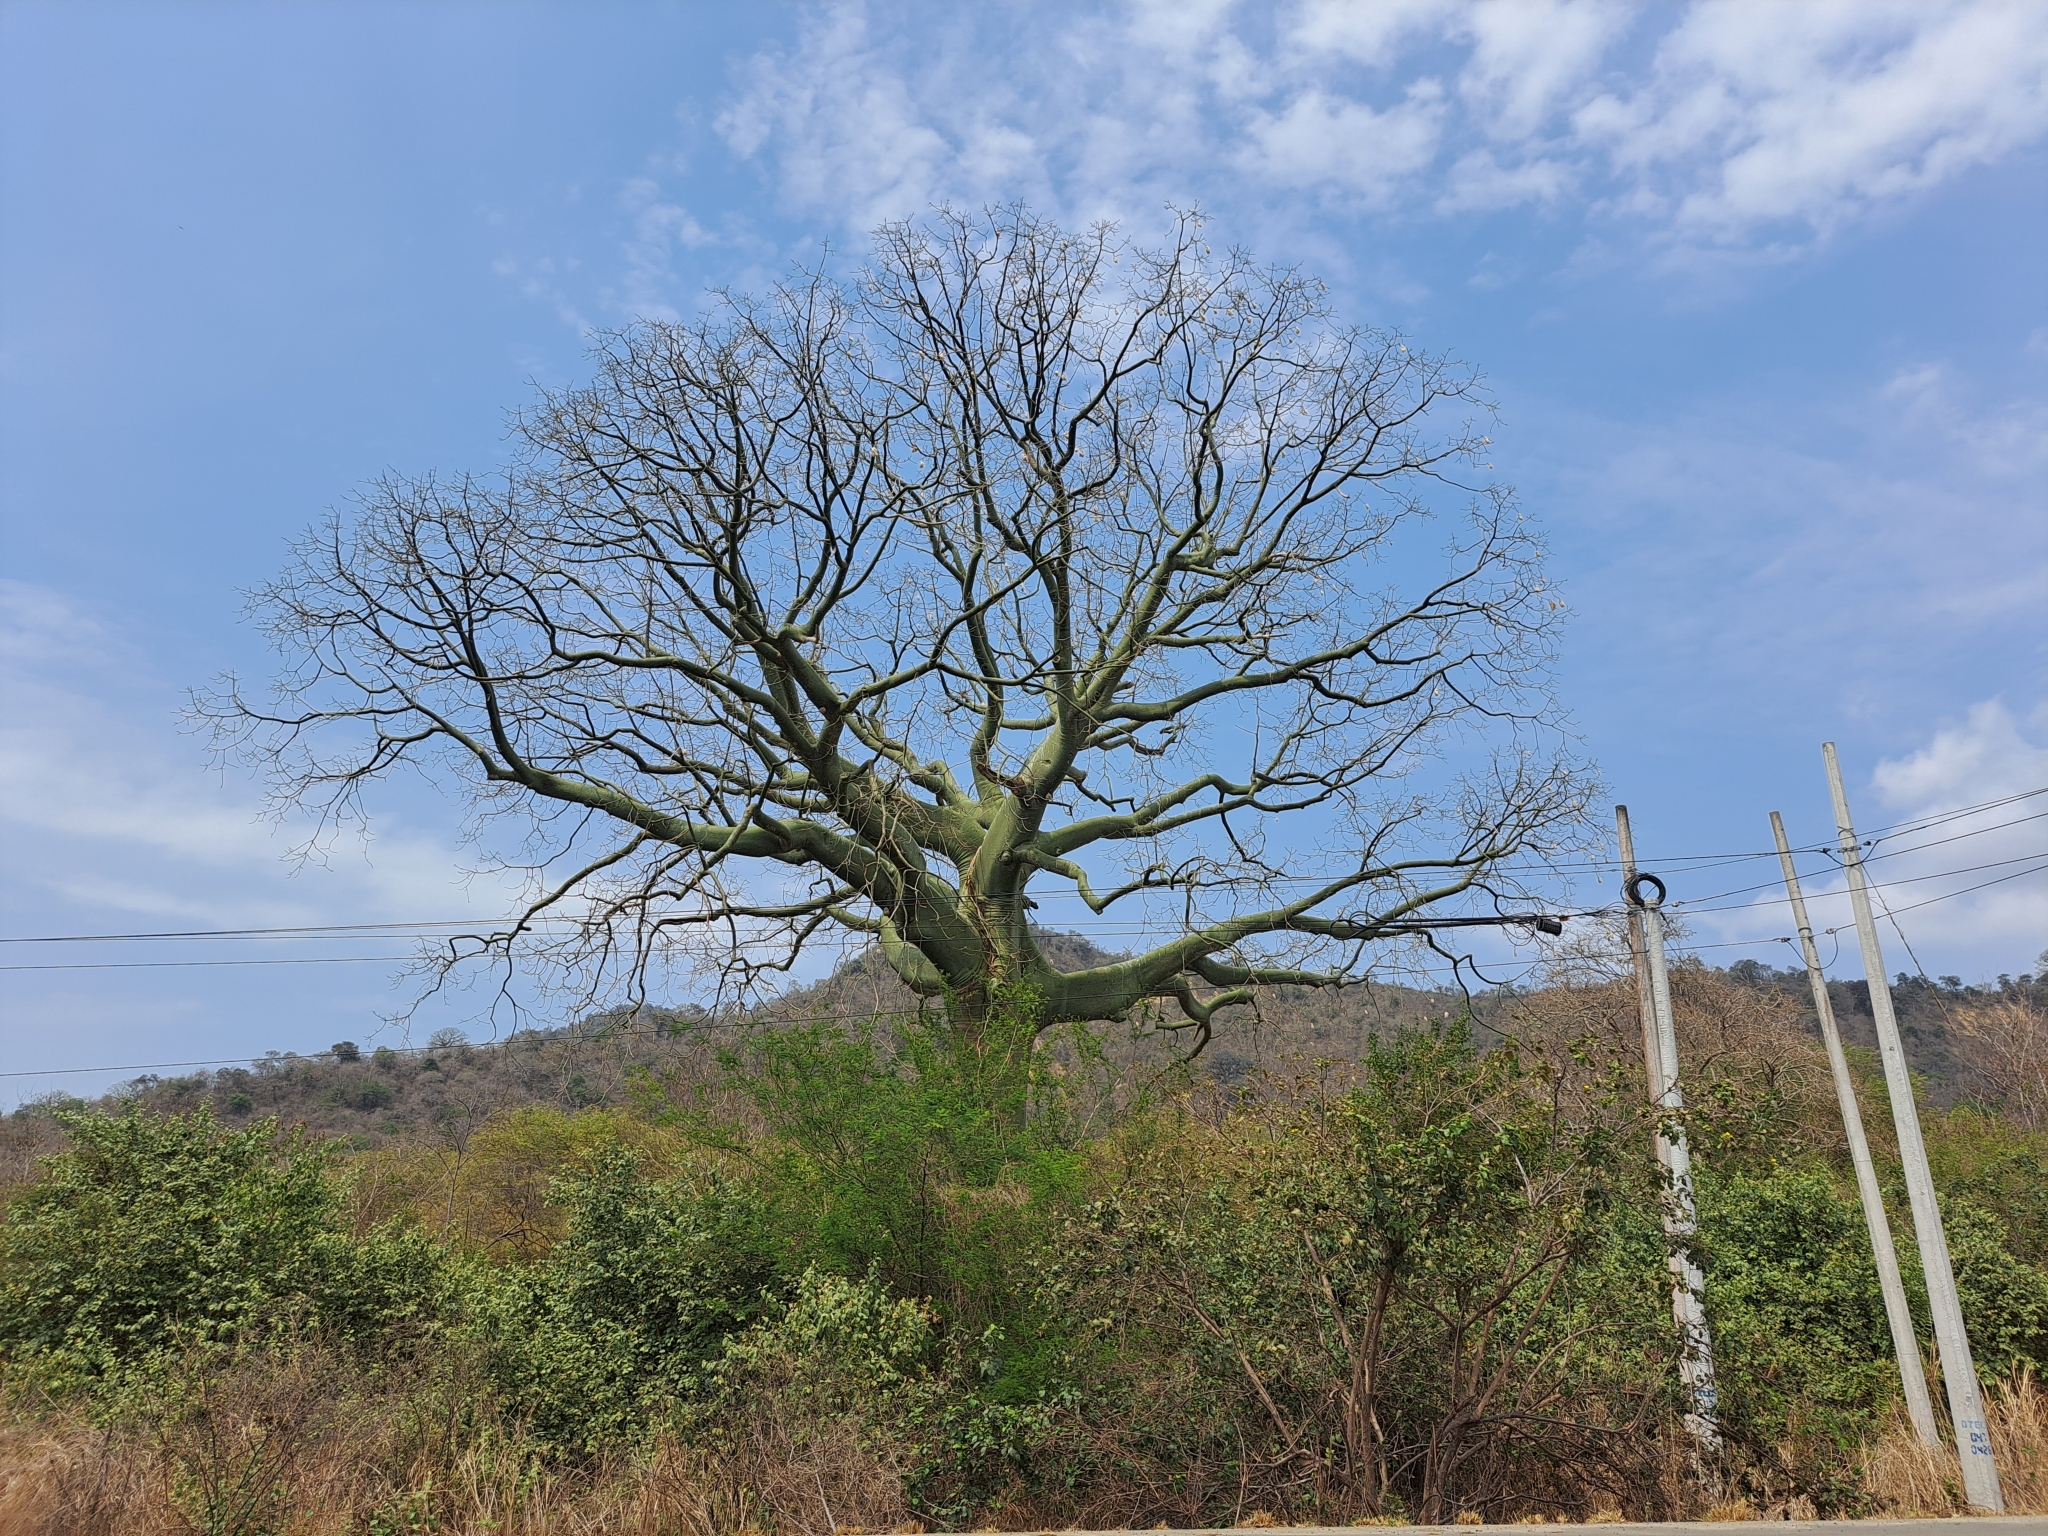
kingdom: Plantae
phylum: Tracheophyta
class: Magnoliopsida
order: Malvales
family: Malvaceae
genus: Ceiba
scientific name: Ceiba trischistandra
